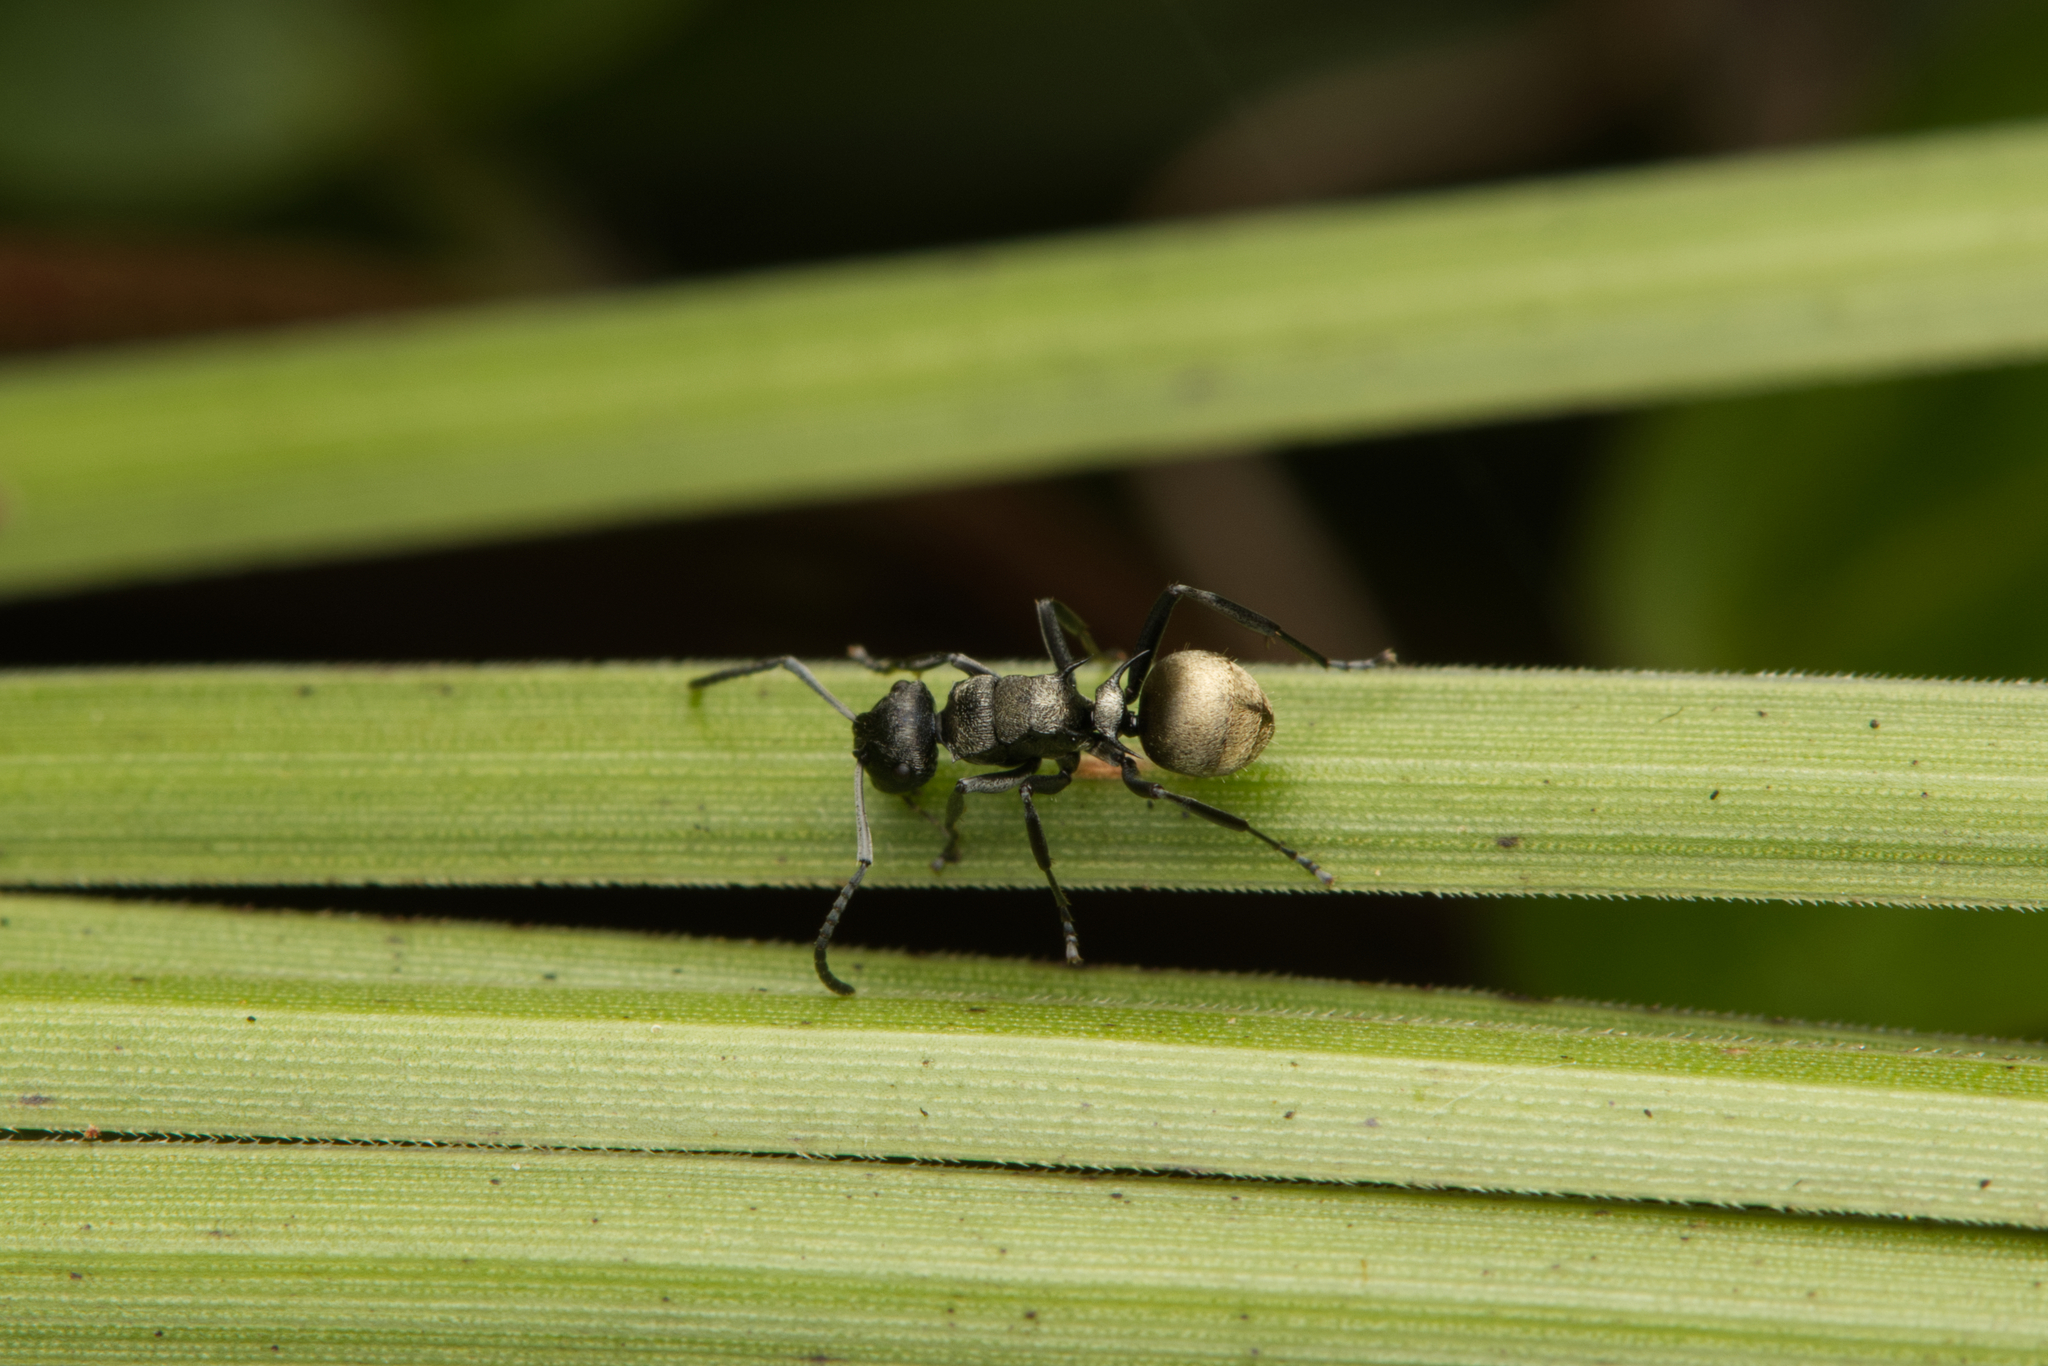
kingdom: Animalia
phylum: Arthropoda
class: Insecta
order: Hymenoptera
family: Formicidae
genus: Polyrhachis
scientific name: Polyrhachis mjobergi
